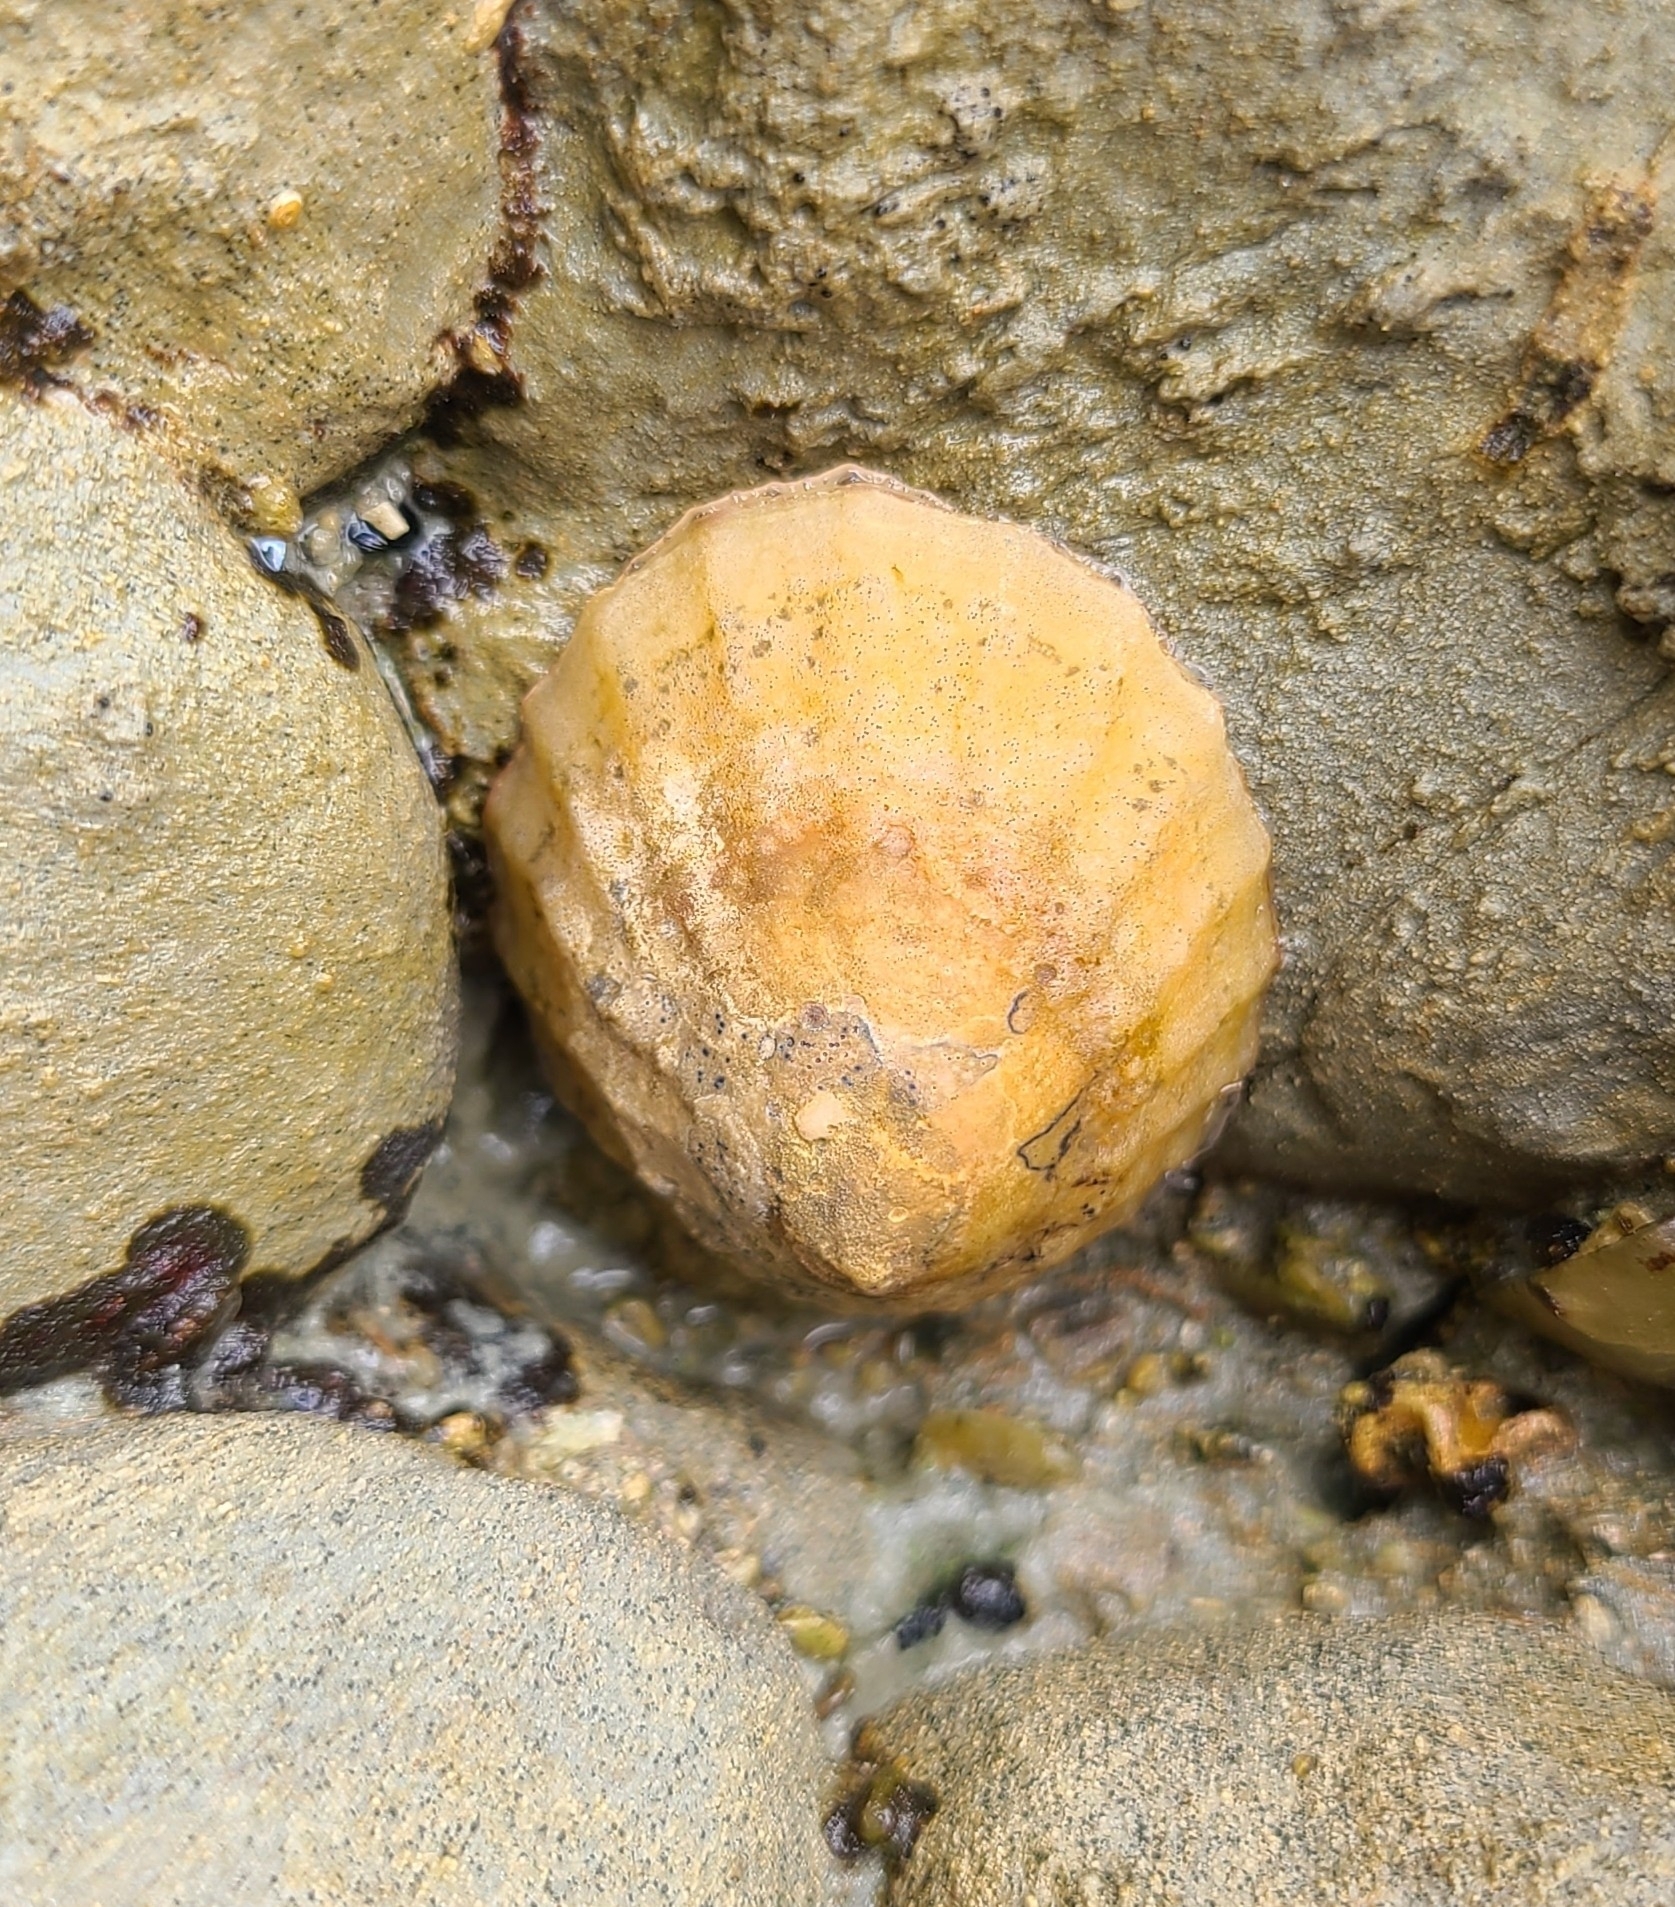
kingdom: Animalia
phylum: Mollusca
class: Gastropoda
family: Nacellidae
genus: Cellana
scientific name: Cellana flava
